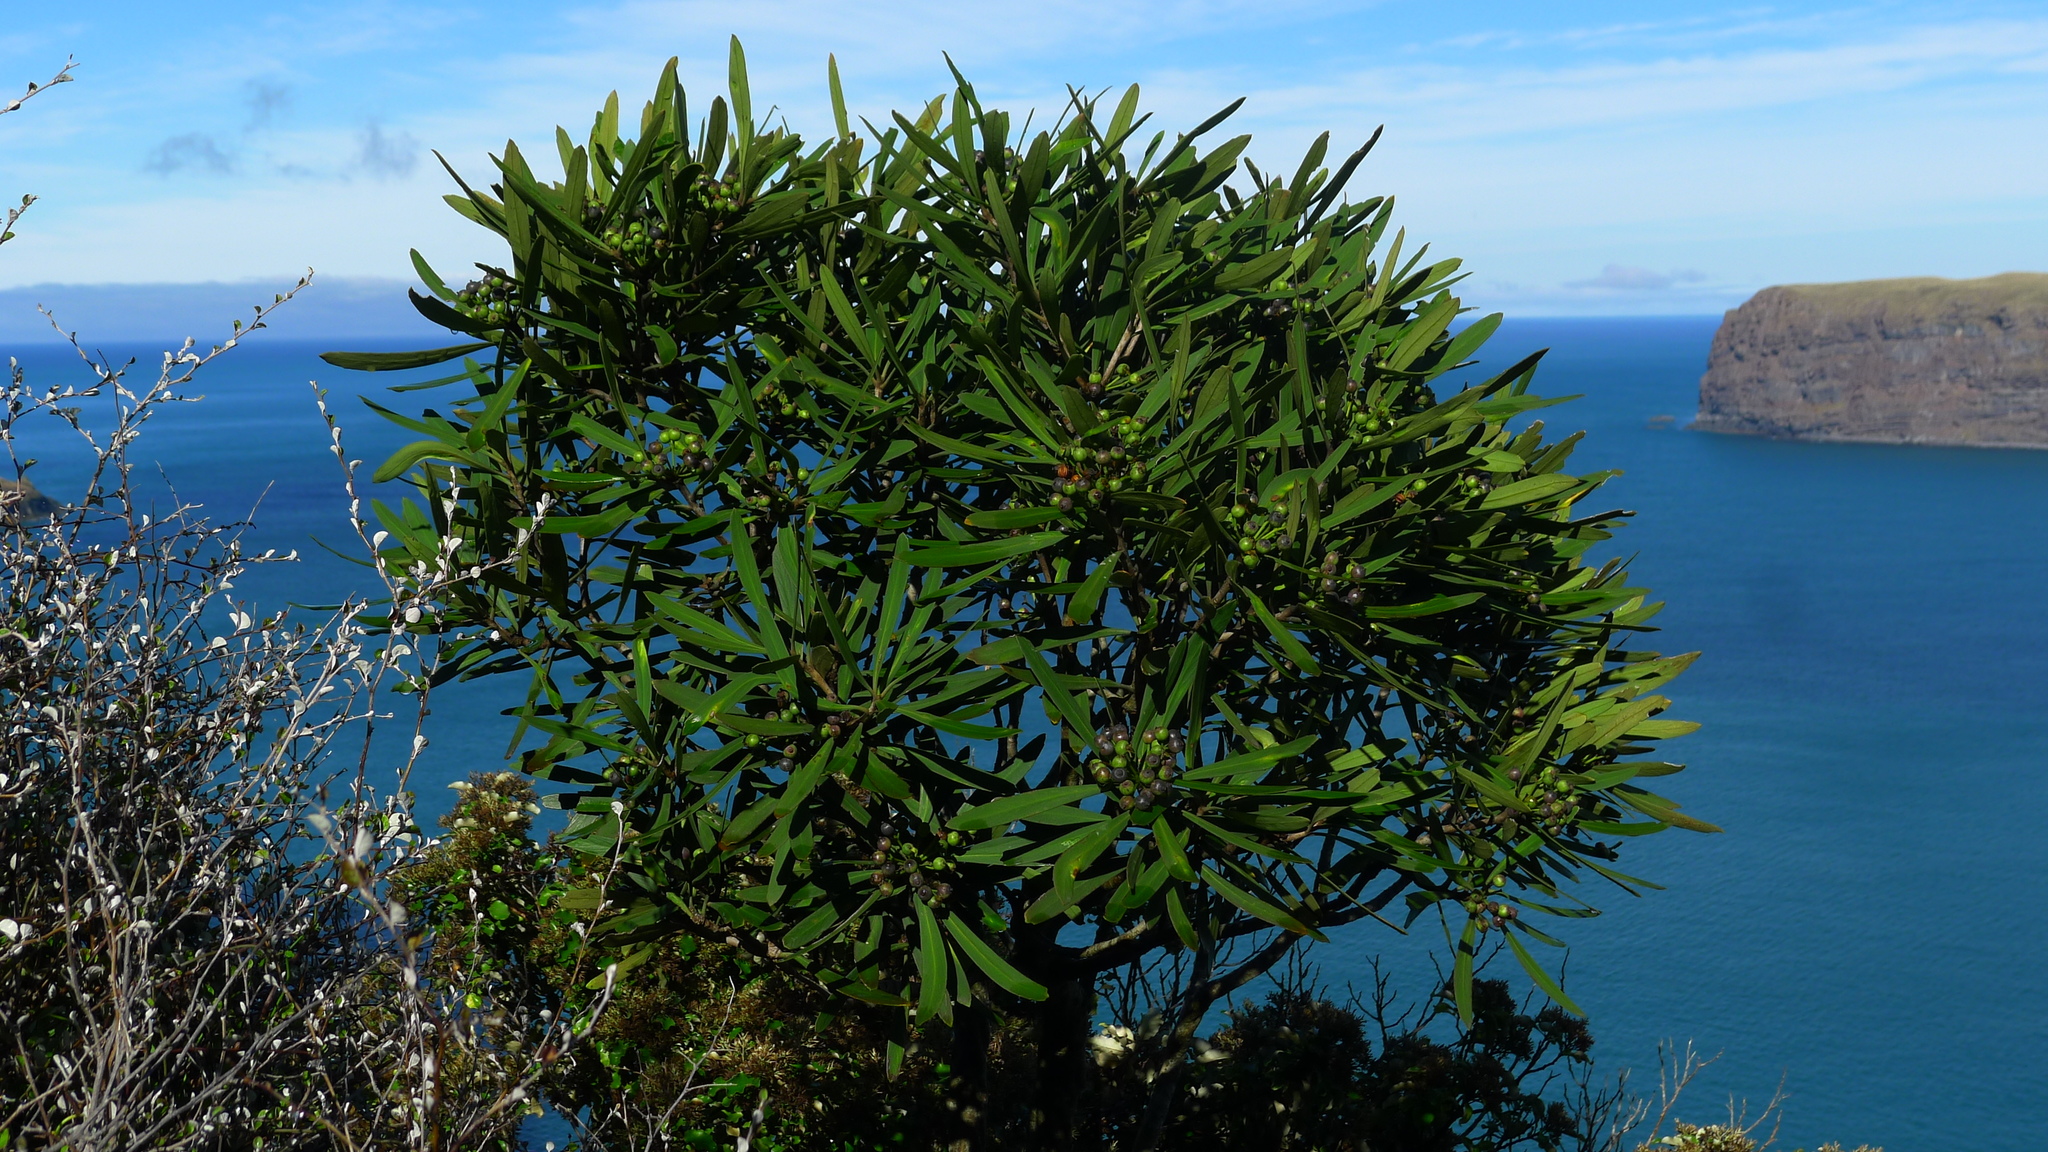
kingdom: Plantae
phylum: Tracheophyta
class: Magnoliopsida
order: Apiales
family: Araliaceae
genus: Pseudopanax
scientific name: Pseudopanax crassifolius
